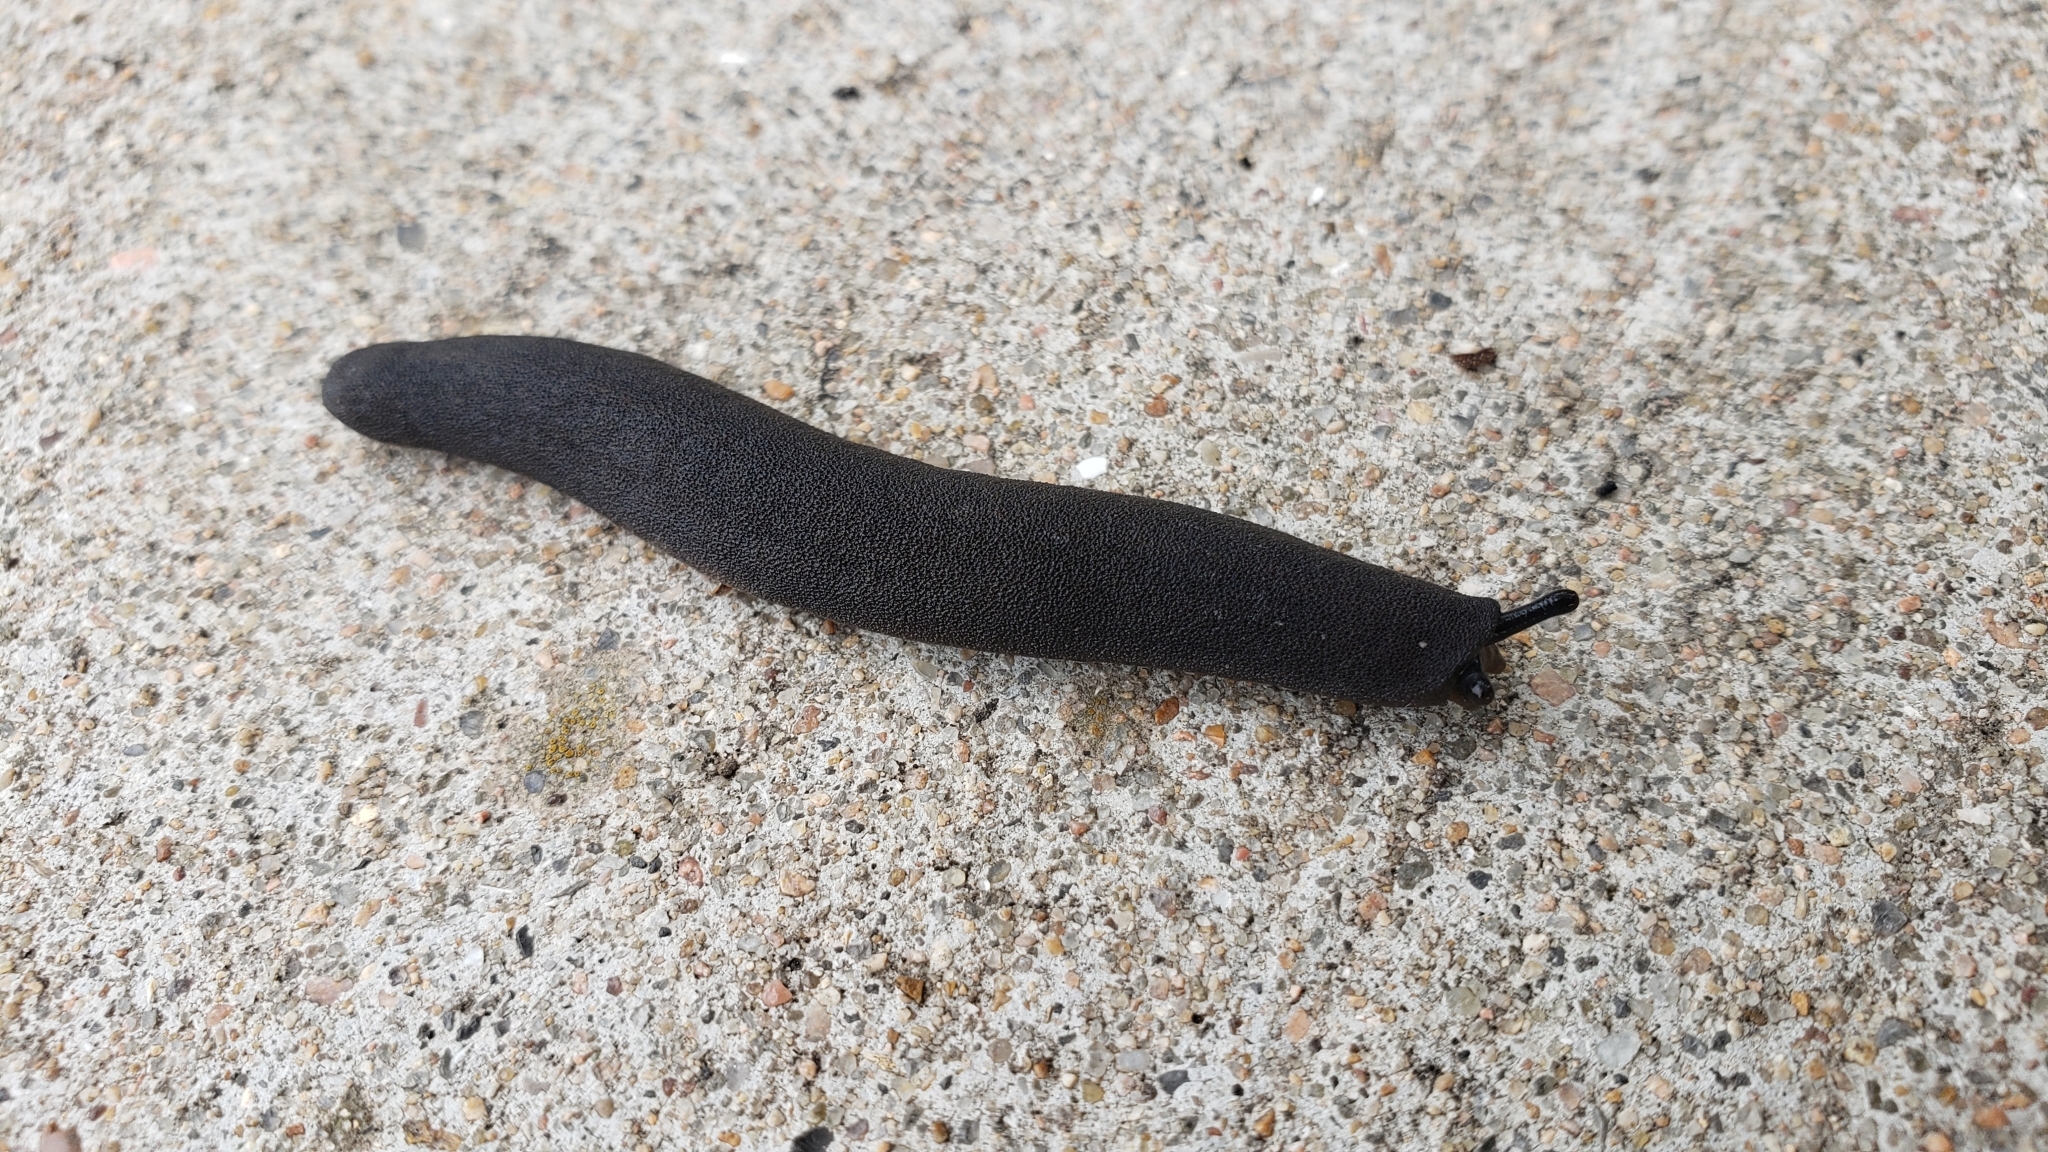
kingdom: Animalia
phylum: Mollusca
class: Gastropoda
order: Systellommatophora
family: Veronicellidae
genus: Belocaulus
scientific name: Belocaulus angustipes
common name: Black velvet leatherleaf slug
